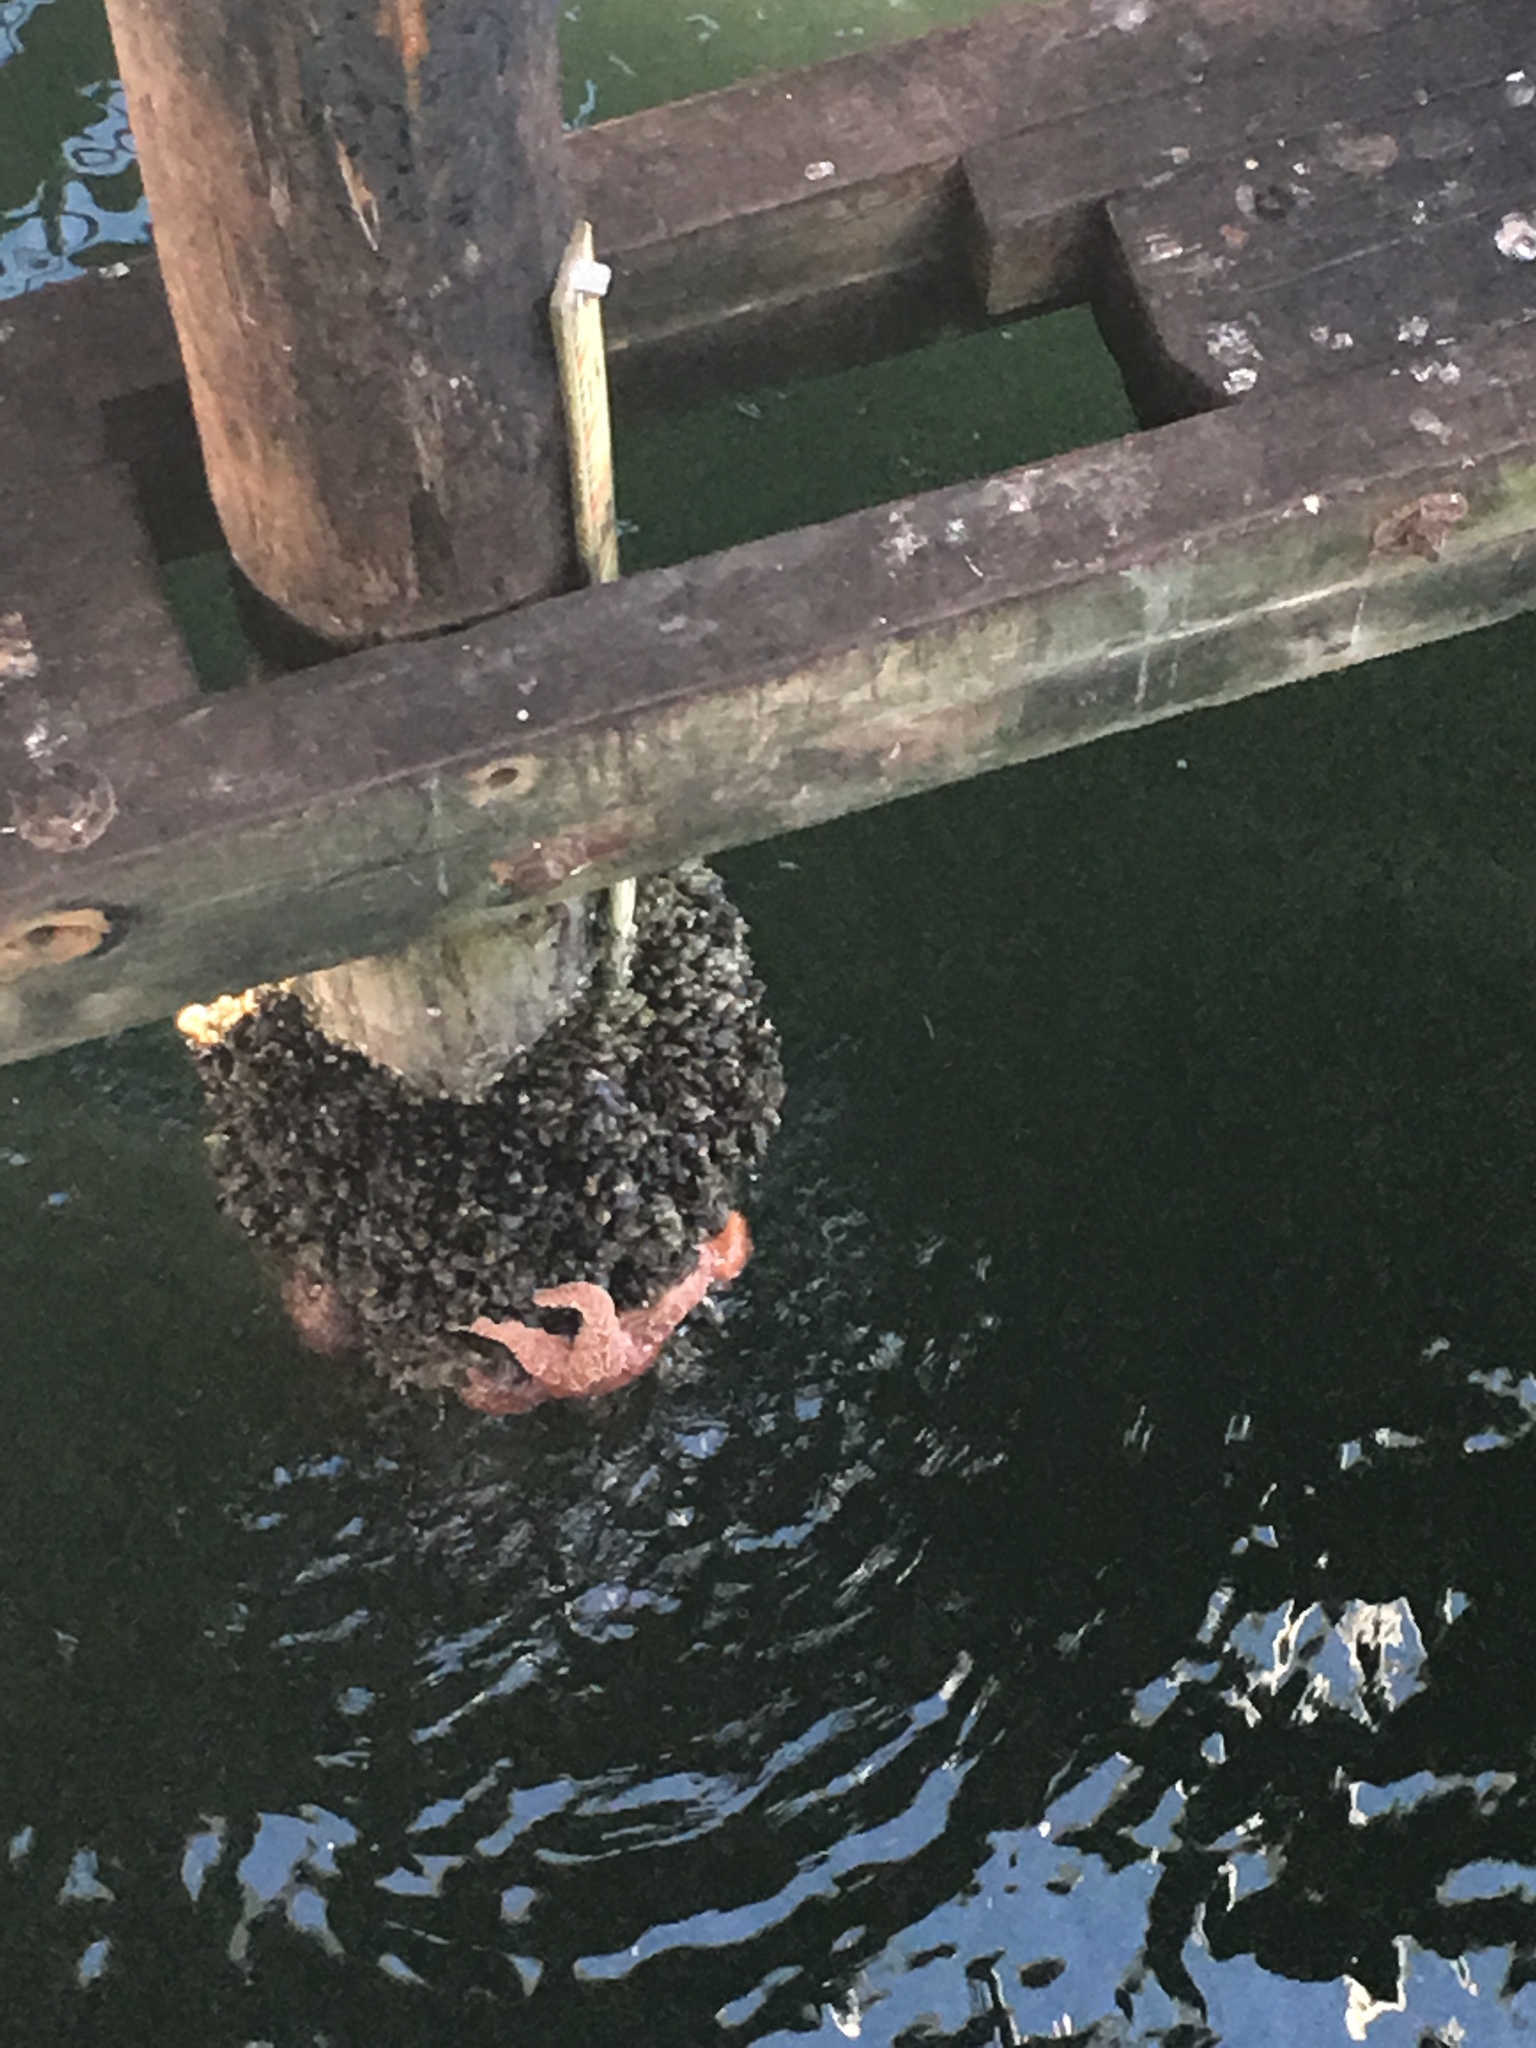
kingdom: Animalia
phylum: Echinodermata
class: Asteroidea
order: Forcipulatida
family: Asteriidae
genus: Pisaster
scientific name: Pisaster ochraceus
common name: Ochre stars
